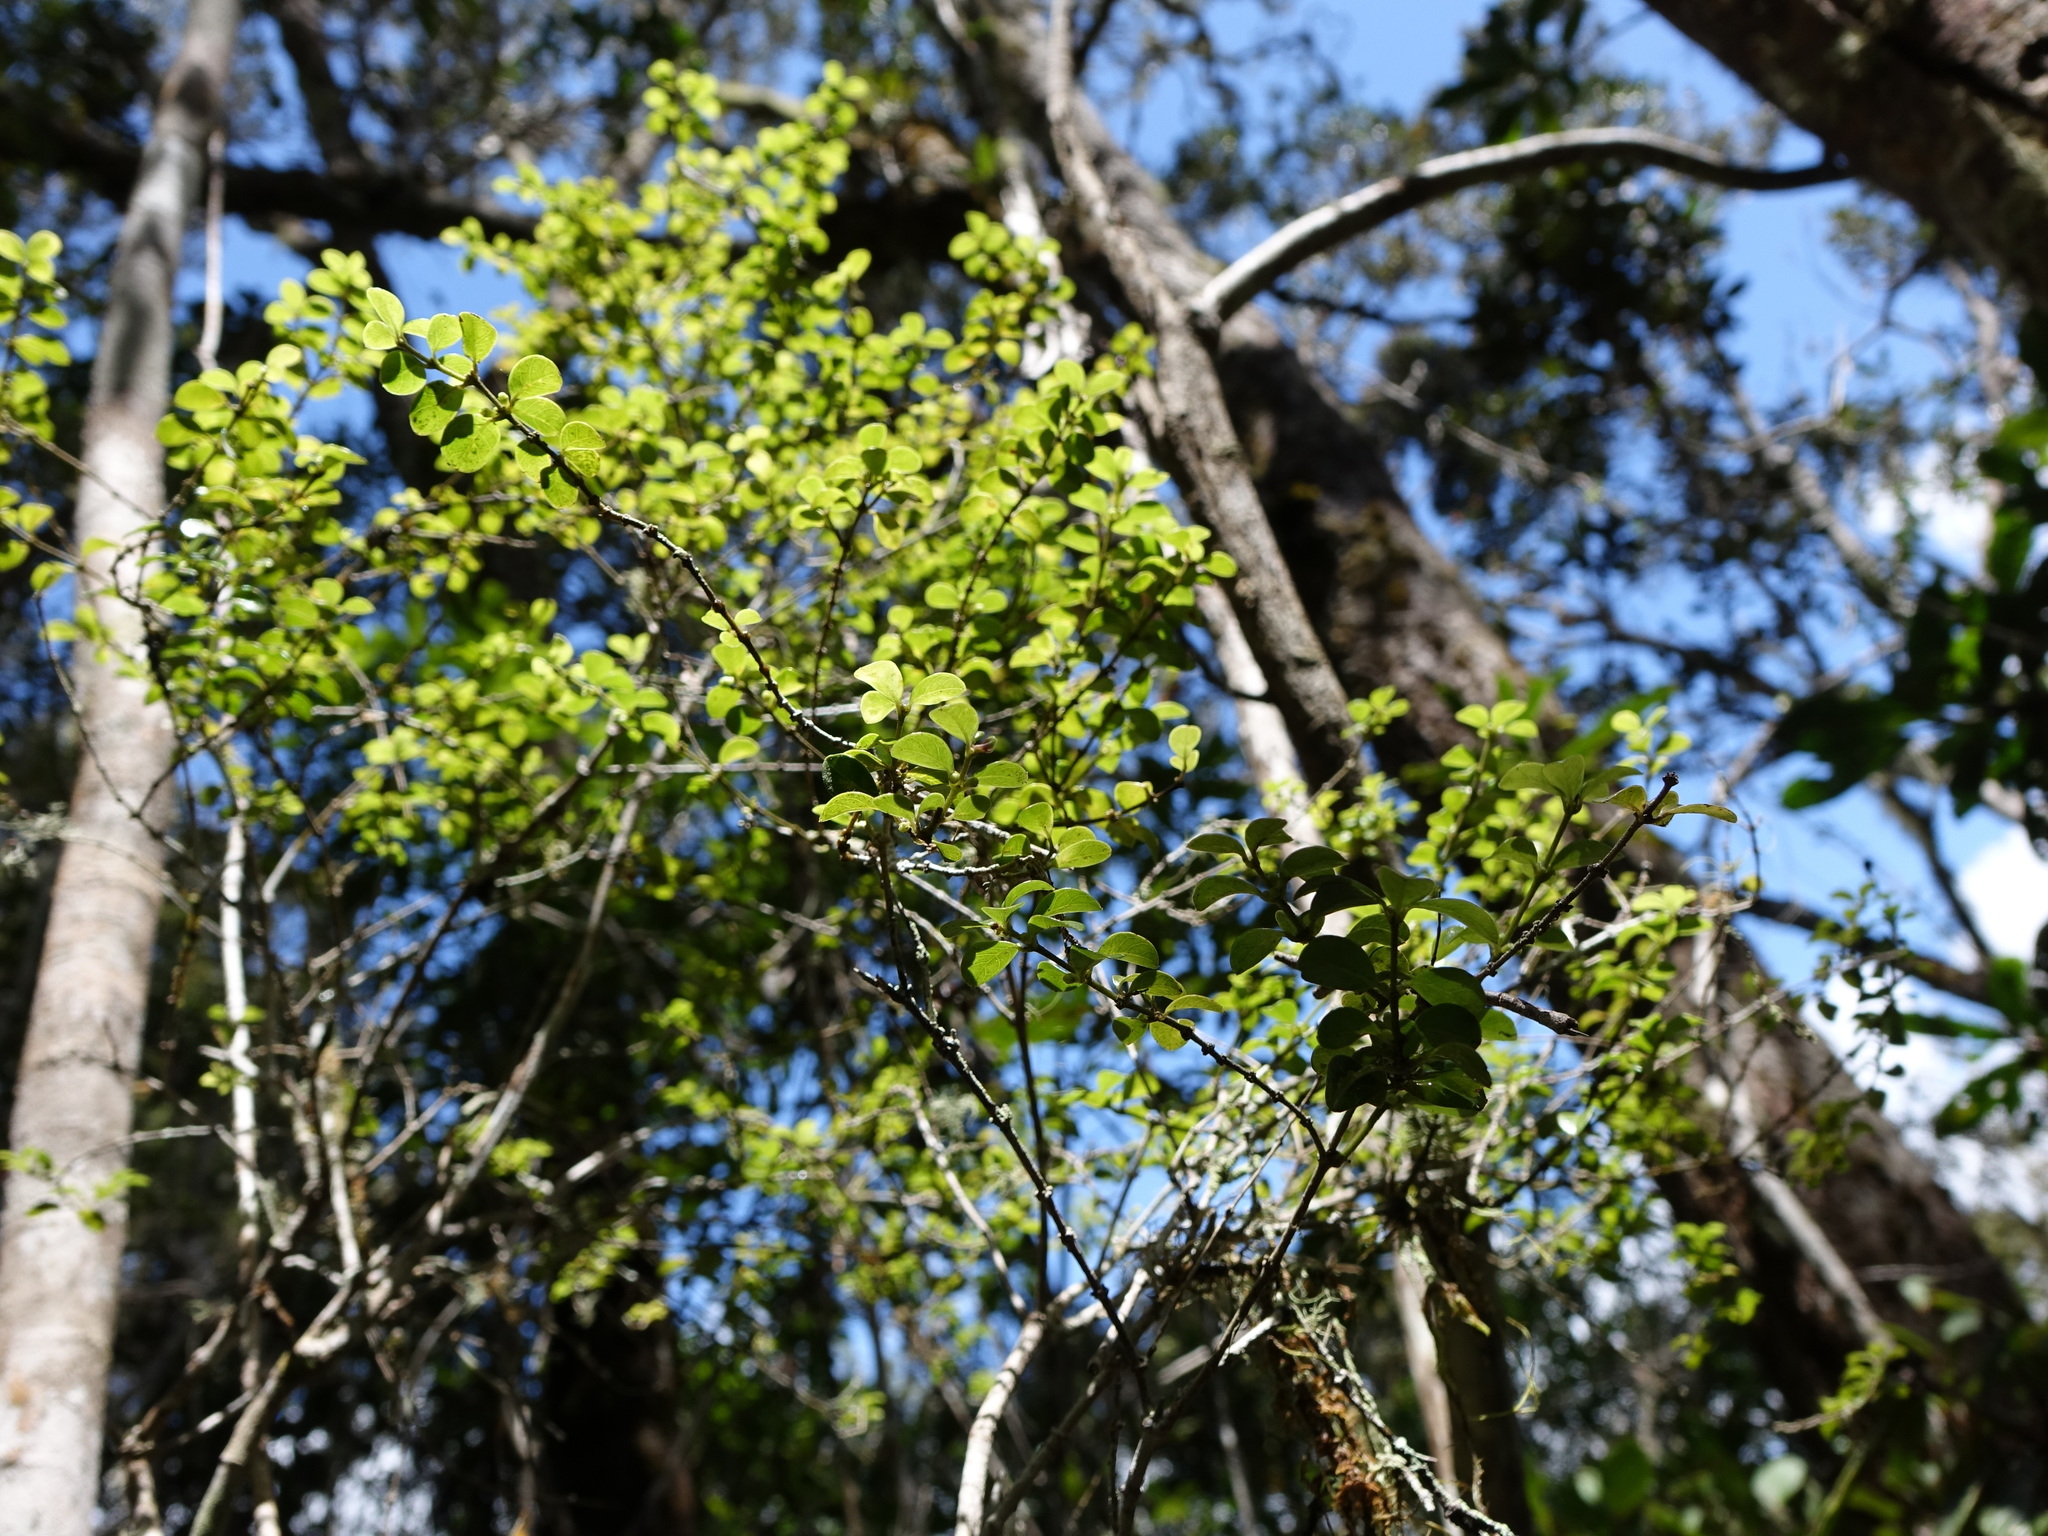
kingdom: Plantae
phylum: Tracheophyta
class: Magnoliopsida
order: Gentianales
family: Rubiaceae
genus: Saldinia
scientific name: Saldinia myrtilloides
